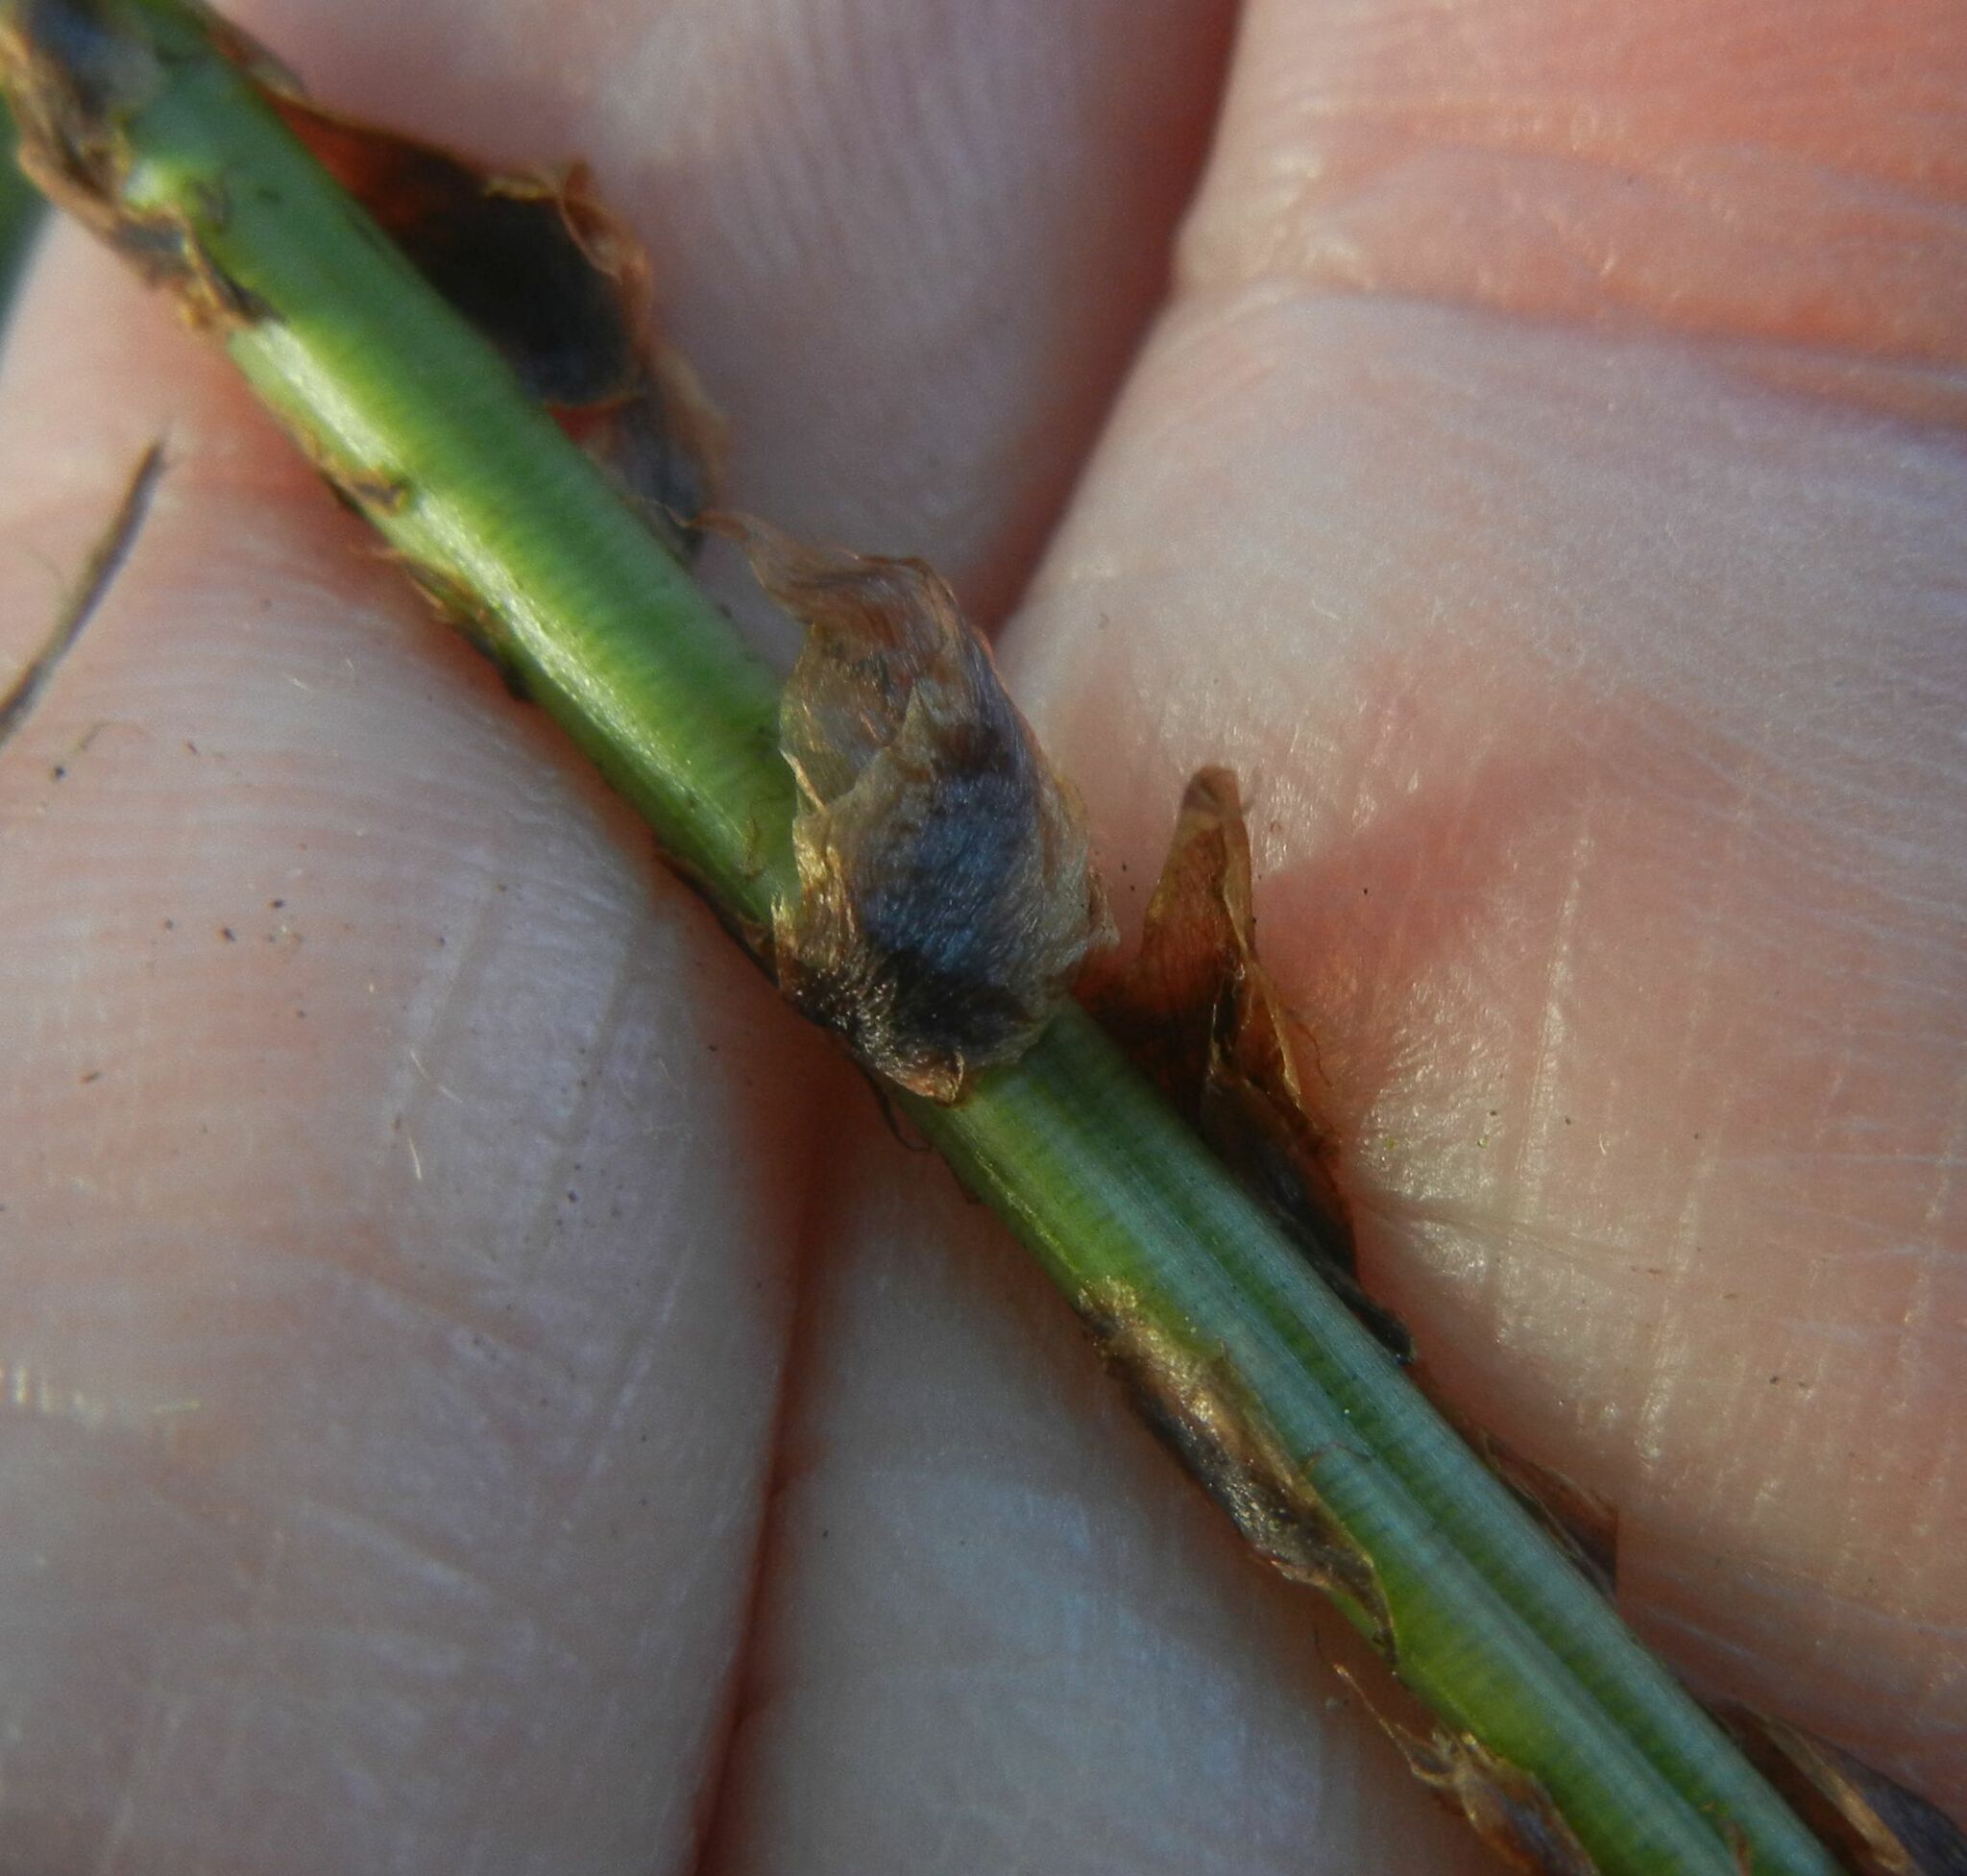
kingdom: Plantae
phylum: Tracheophyta
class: Polypodiopsida
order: Polypodiales
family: Dryopteridaceae
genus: Dryopteris
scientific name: Dryopteris dilatata
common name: Broad buckler-fern
